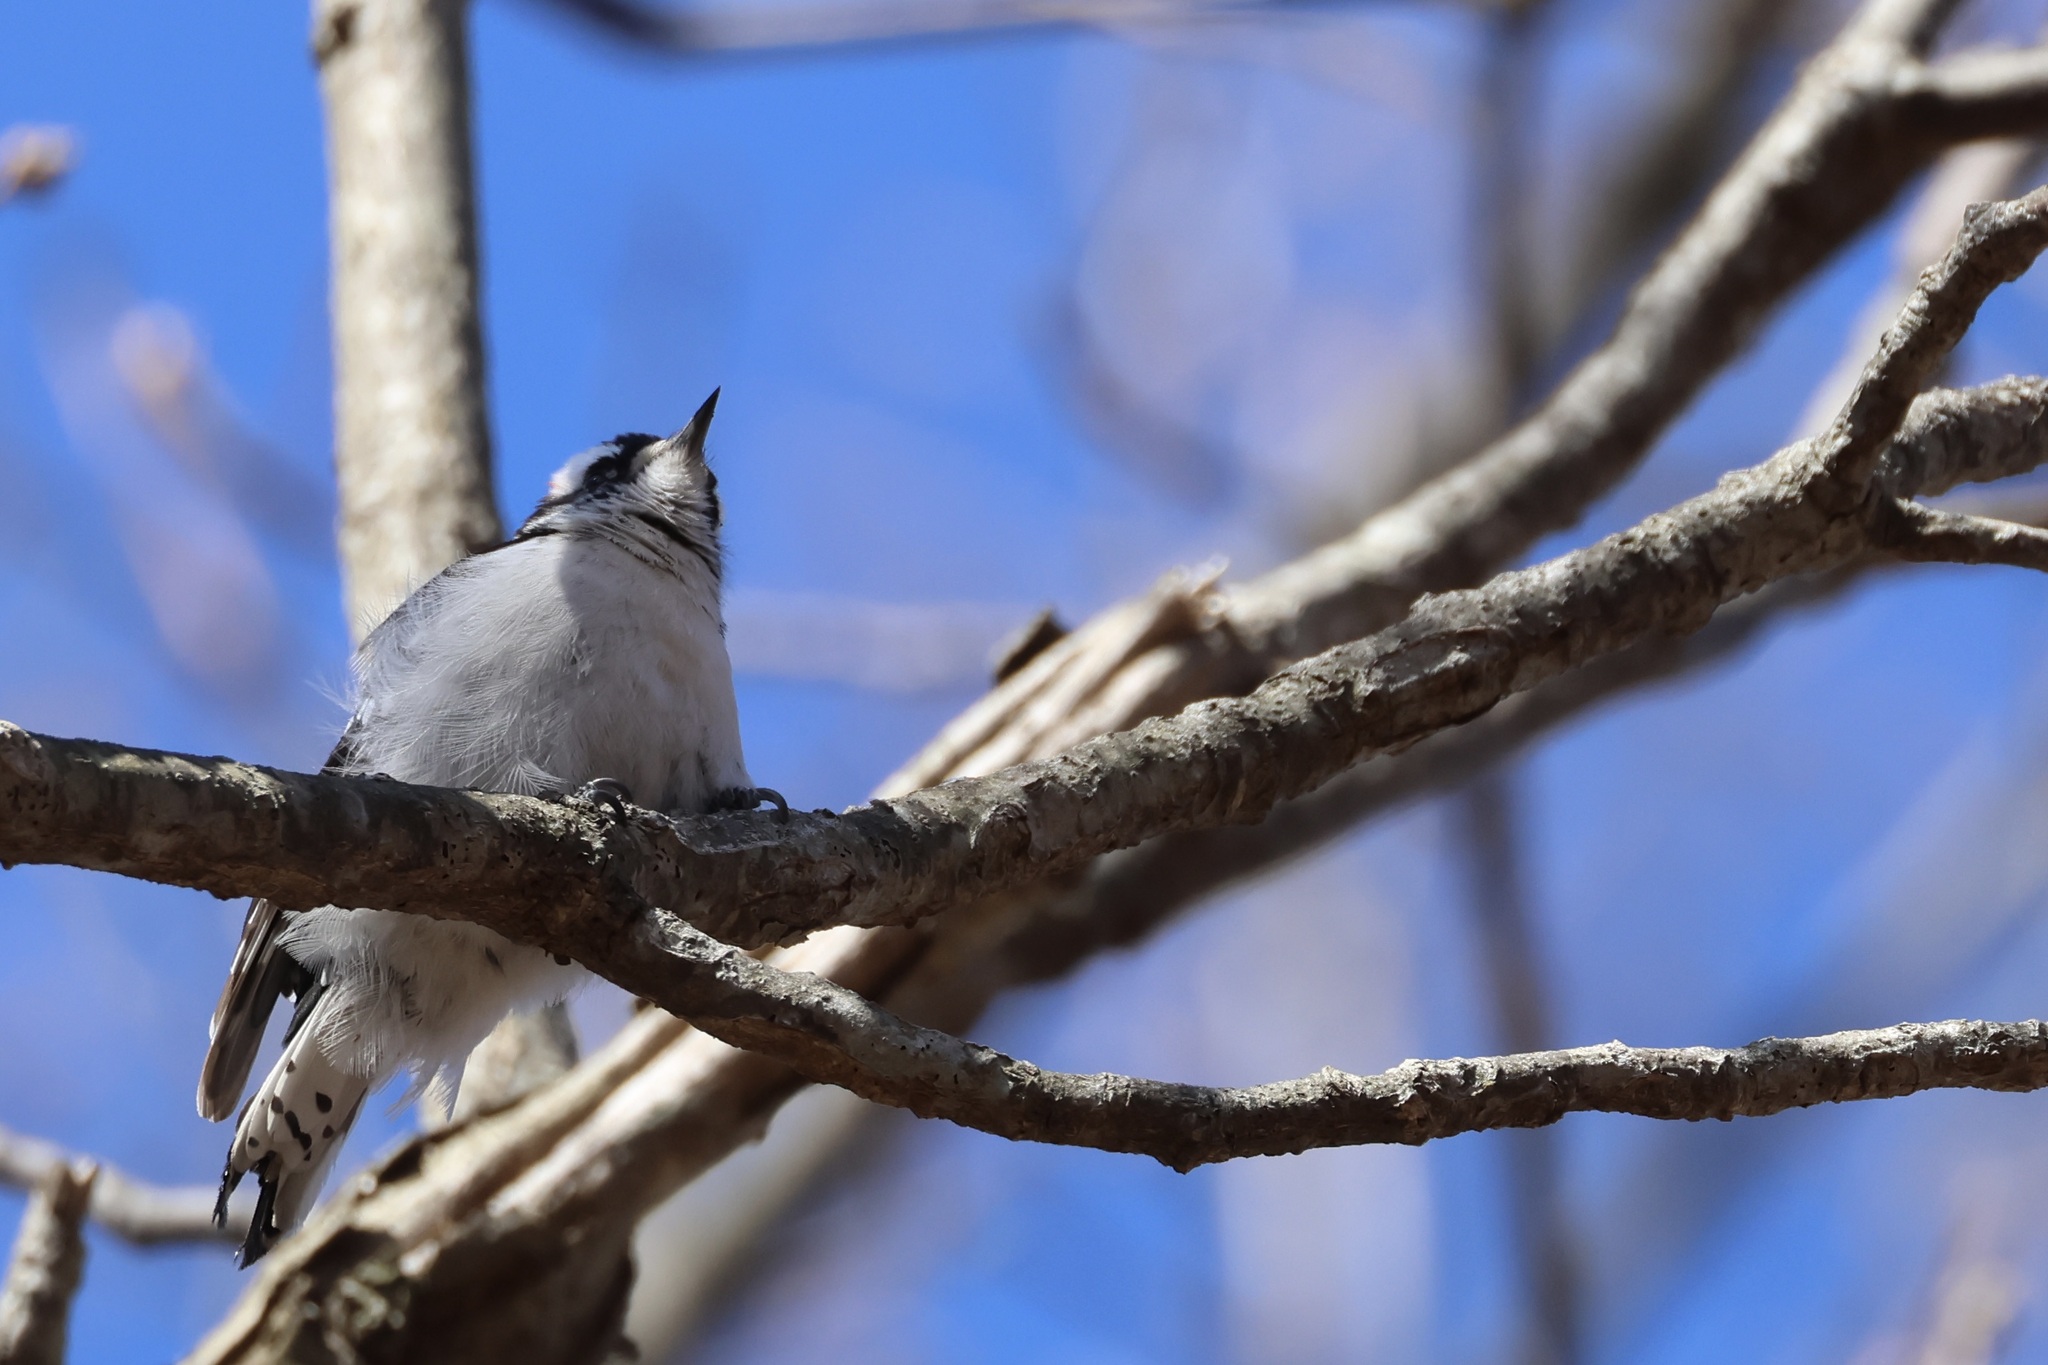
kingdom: Animalia
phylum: Chordata
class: Aves
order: Piciformes
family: Picidae
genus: Dryobates
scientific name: Dryobates pubescens
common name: Downy woodpecker
